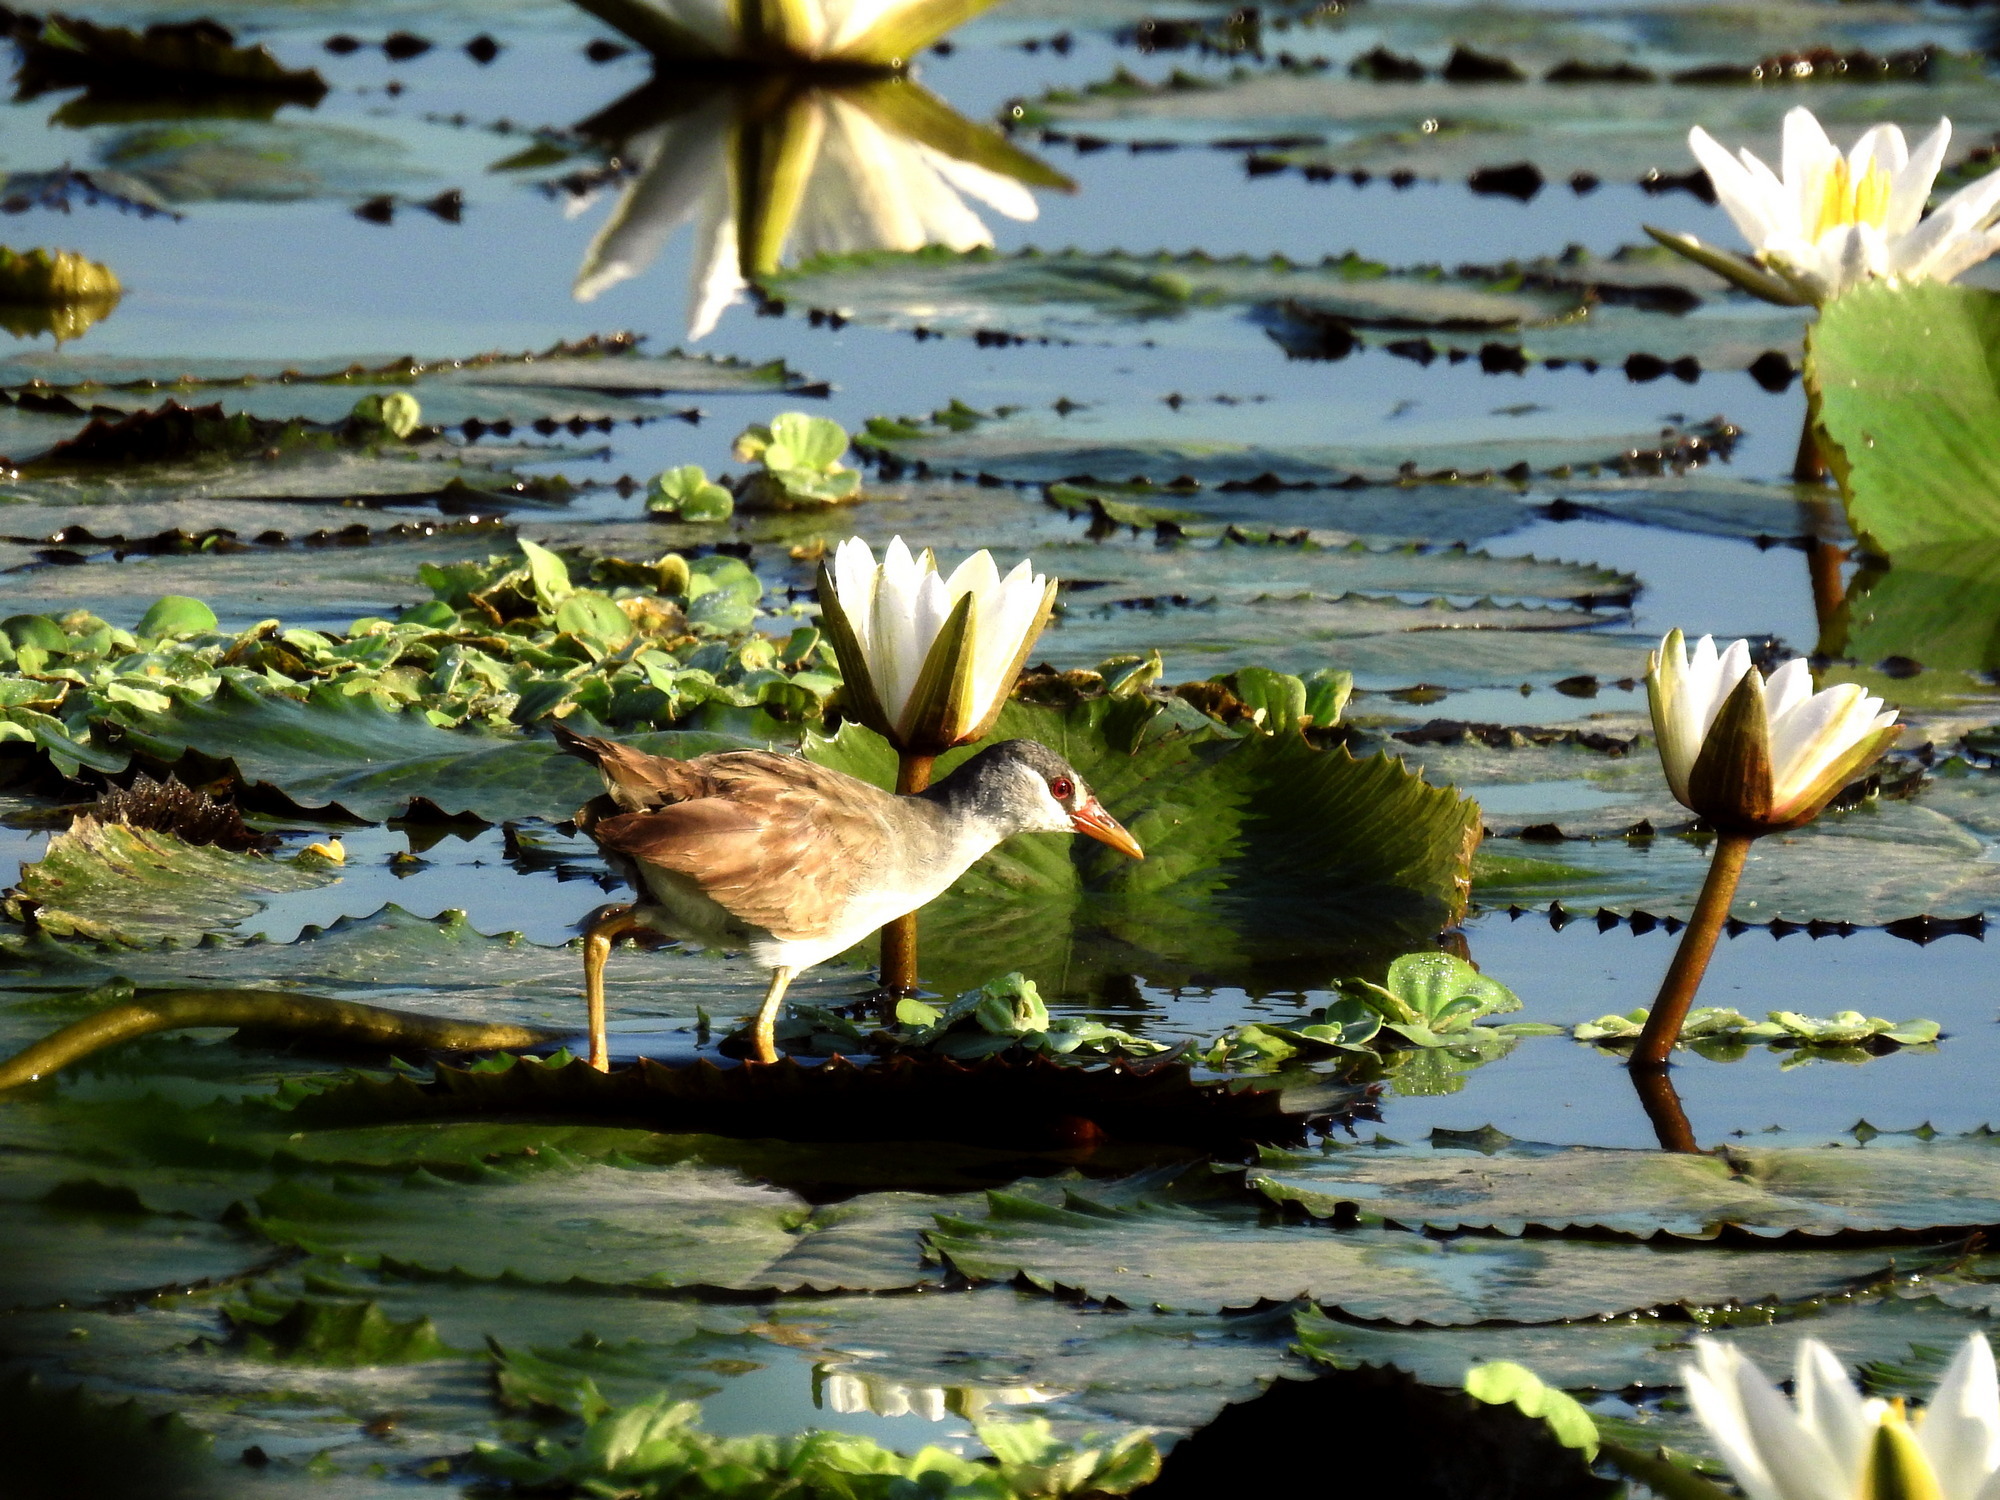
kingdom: Animalia
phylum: Chordata
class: Aves
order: Gruiformes
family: Rallidae
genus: Porzana
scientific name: Porzana cinerea
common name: White-browed crake
